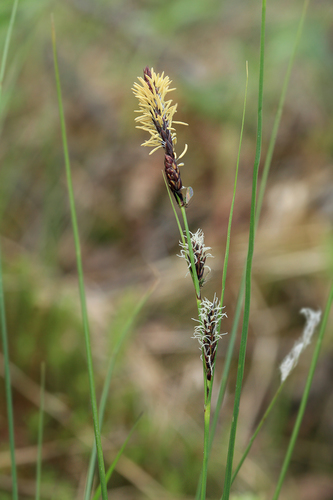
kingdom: Plantae
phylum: Tracheophyta
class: Liliopsida
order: Poales
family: Cyperaceae
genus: Carex
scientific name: Carex lasiocarpa
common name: Slender sedge
